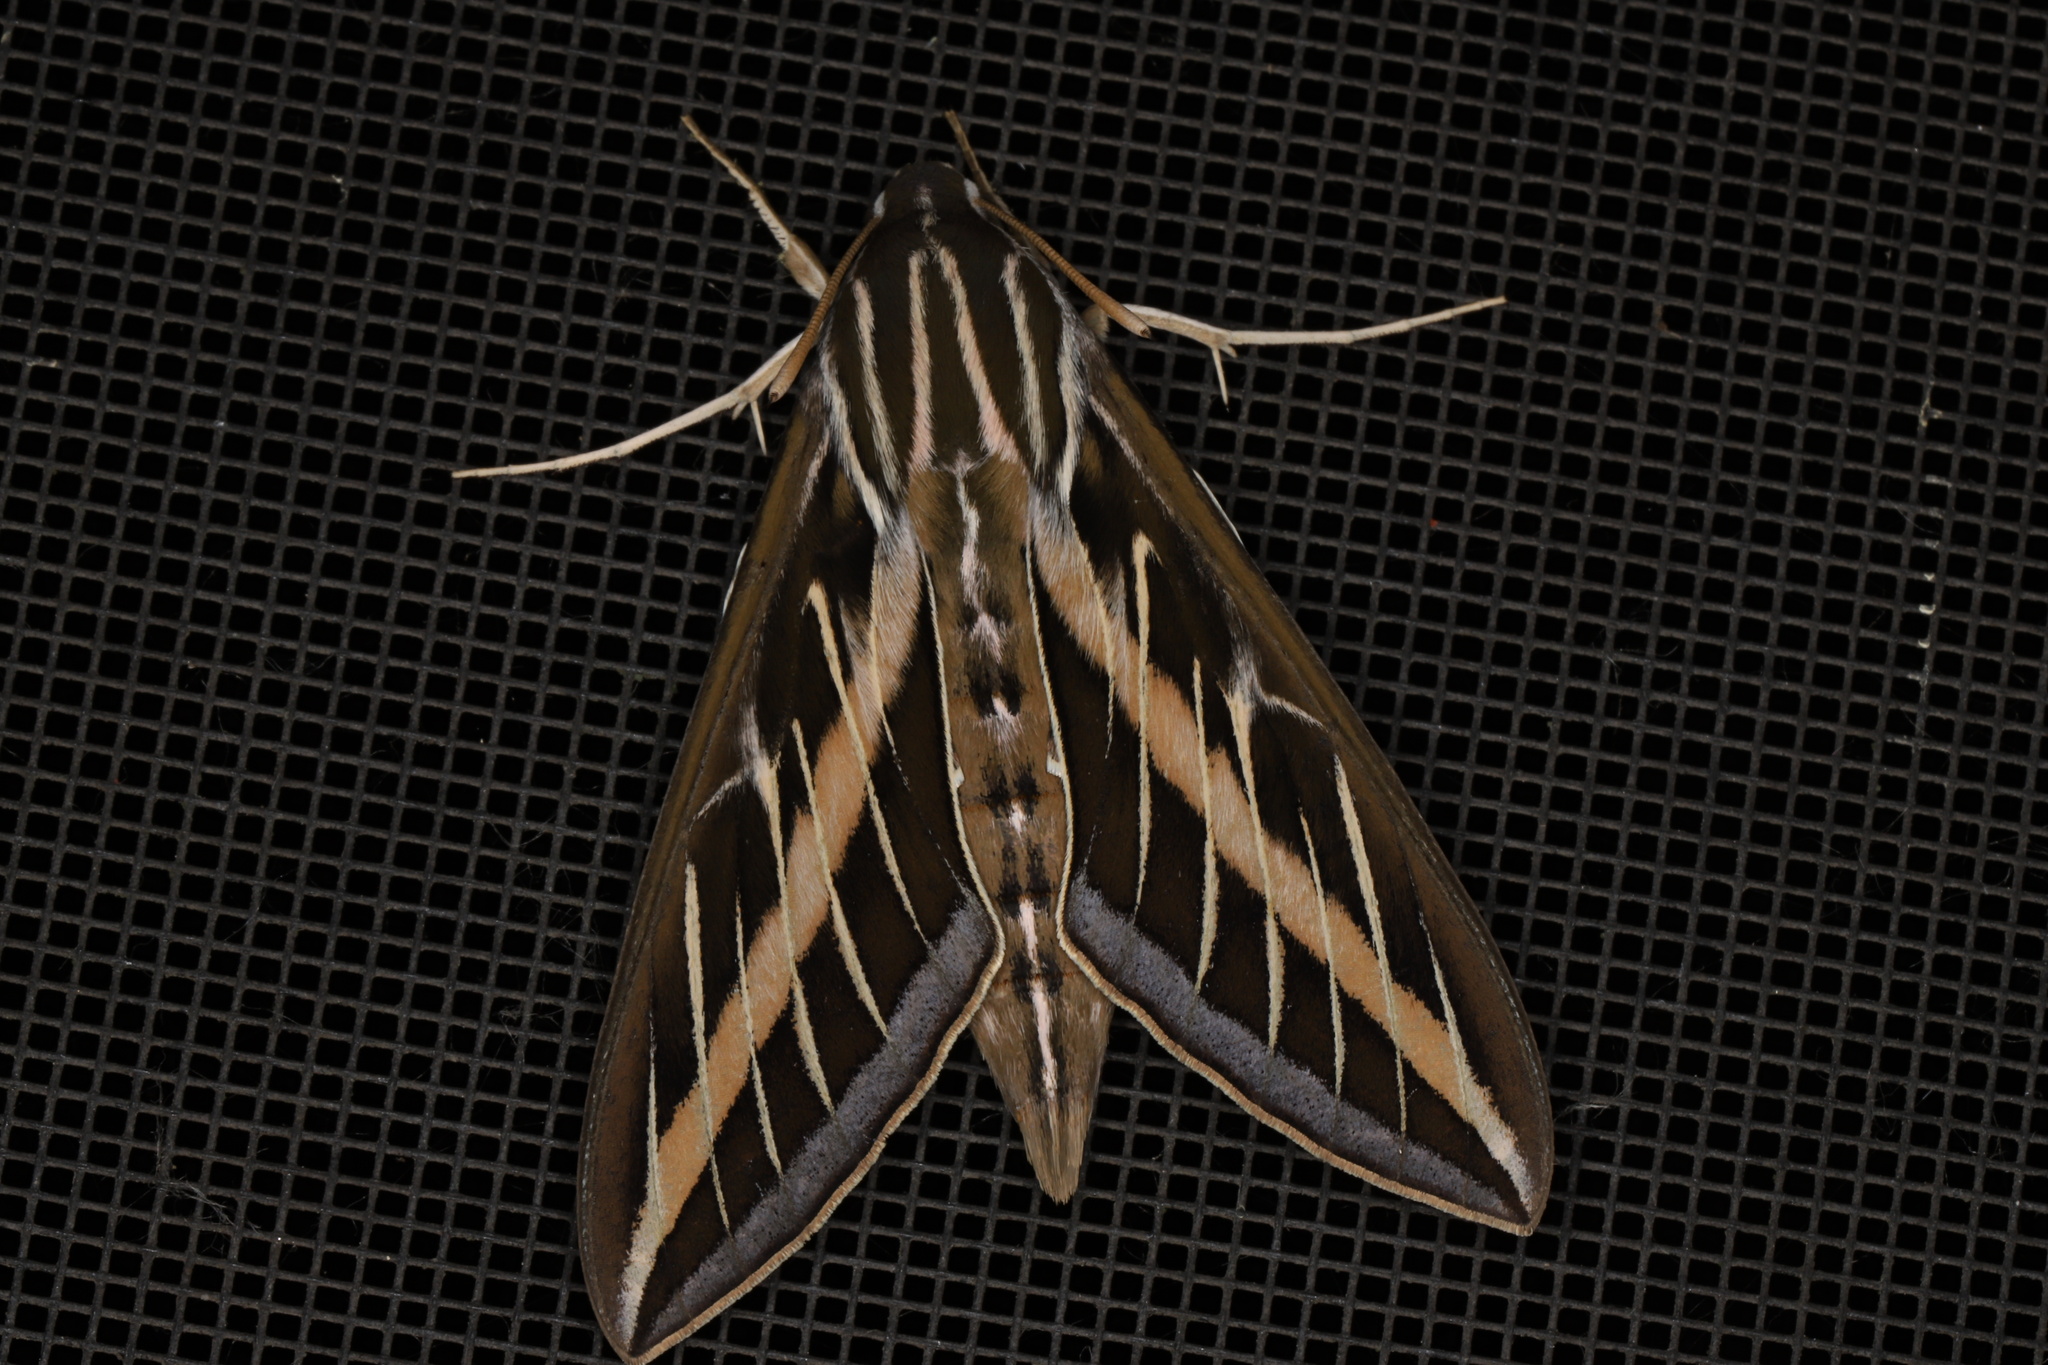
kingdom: Animalia
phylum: Arthropoda
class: Insecta
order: Lepidoptera
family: Sphingidae
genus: Hyles
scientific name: Hyles lineata
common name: White-lined sphinx
